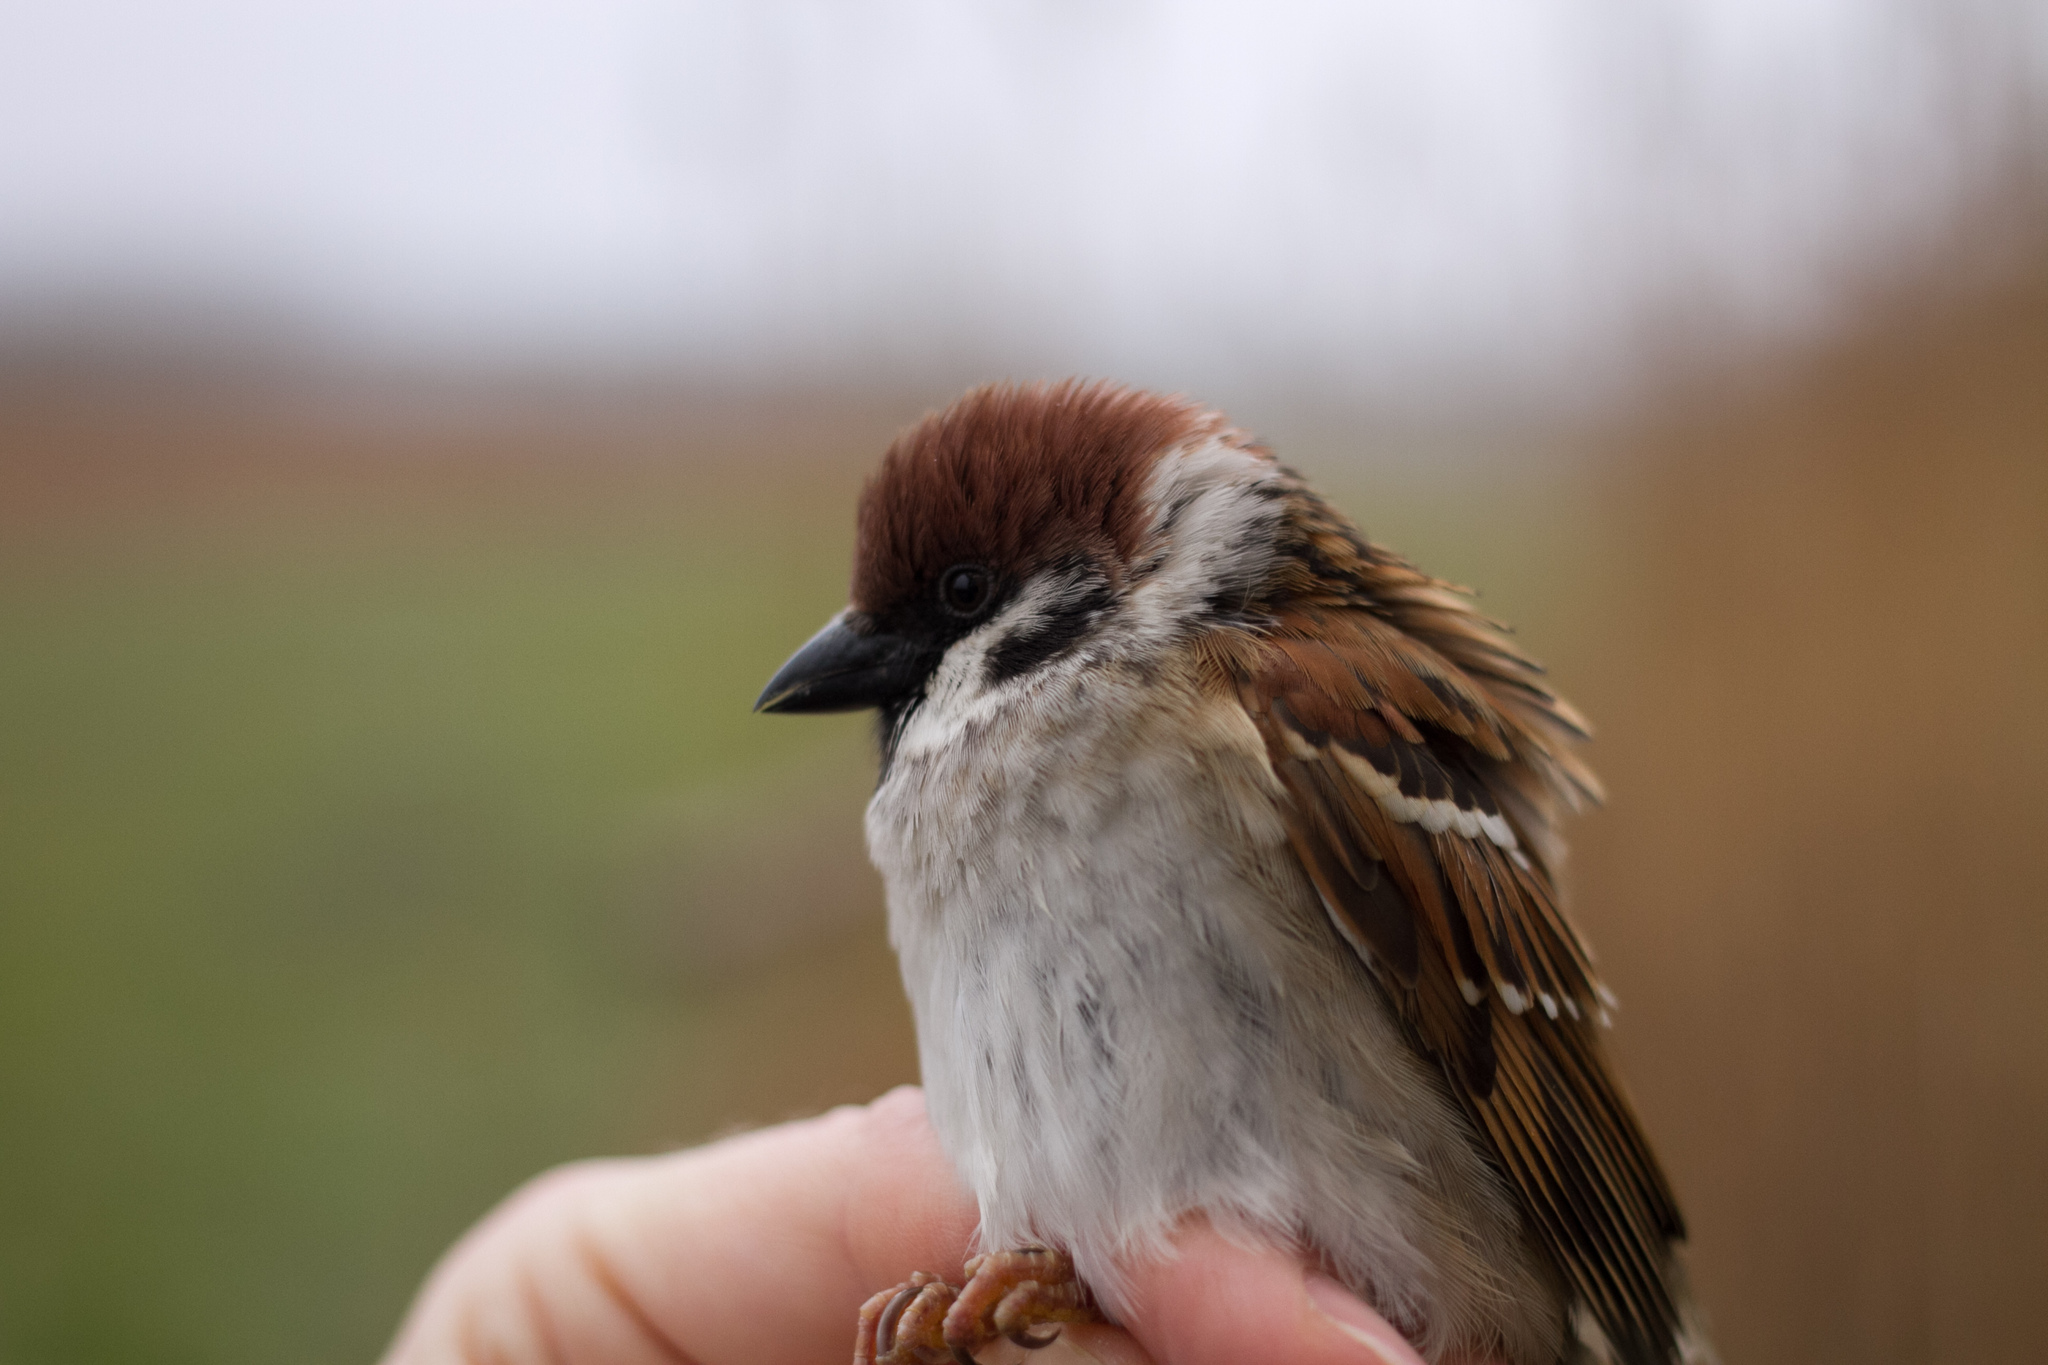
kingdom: Animalia
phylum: Chordata
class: Aves
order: Passeriformes
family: Passeridae
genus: Passer
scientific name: Passer montanus
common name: Eurasian tree sparrow
